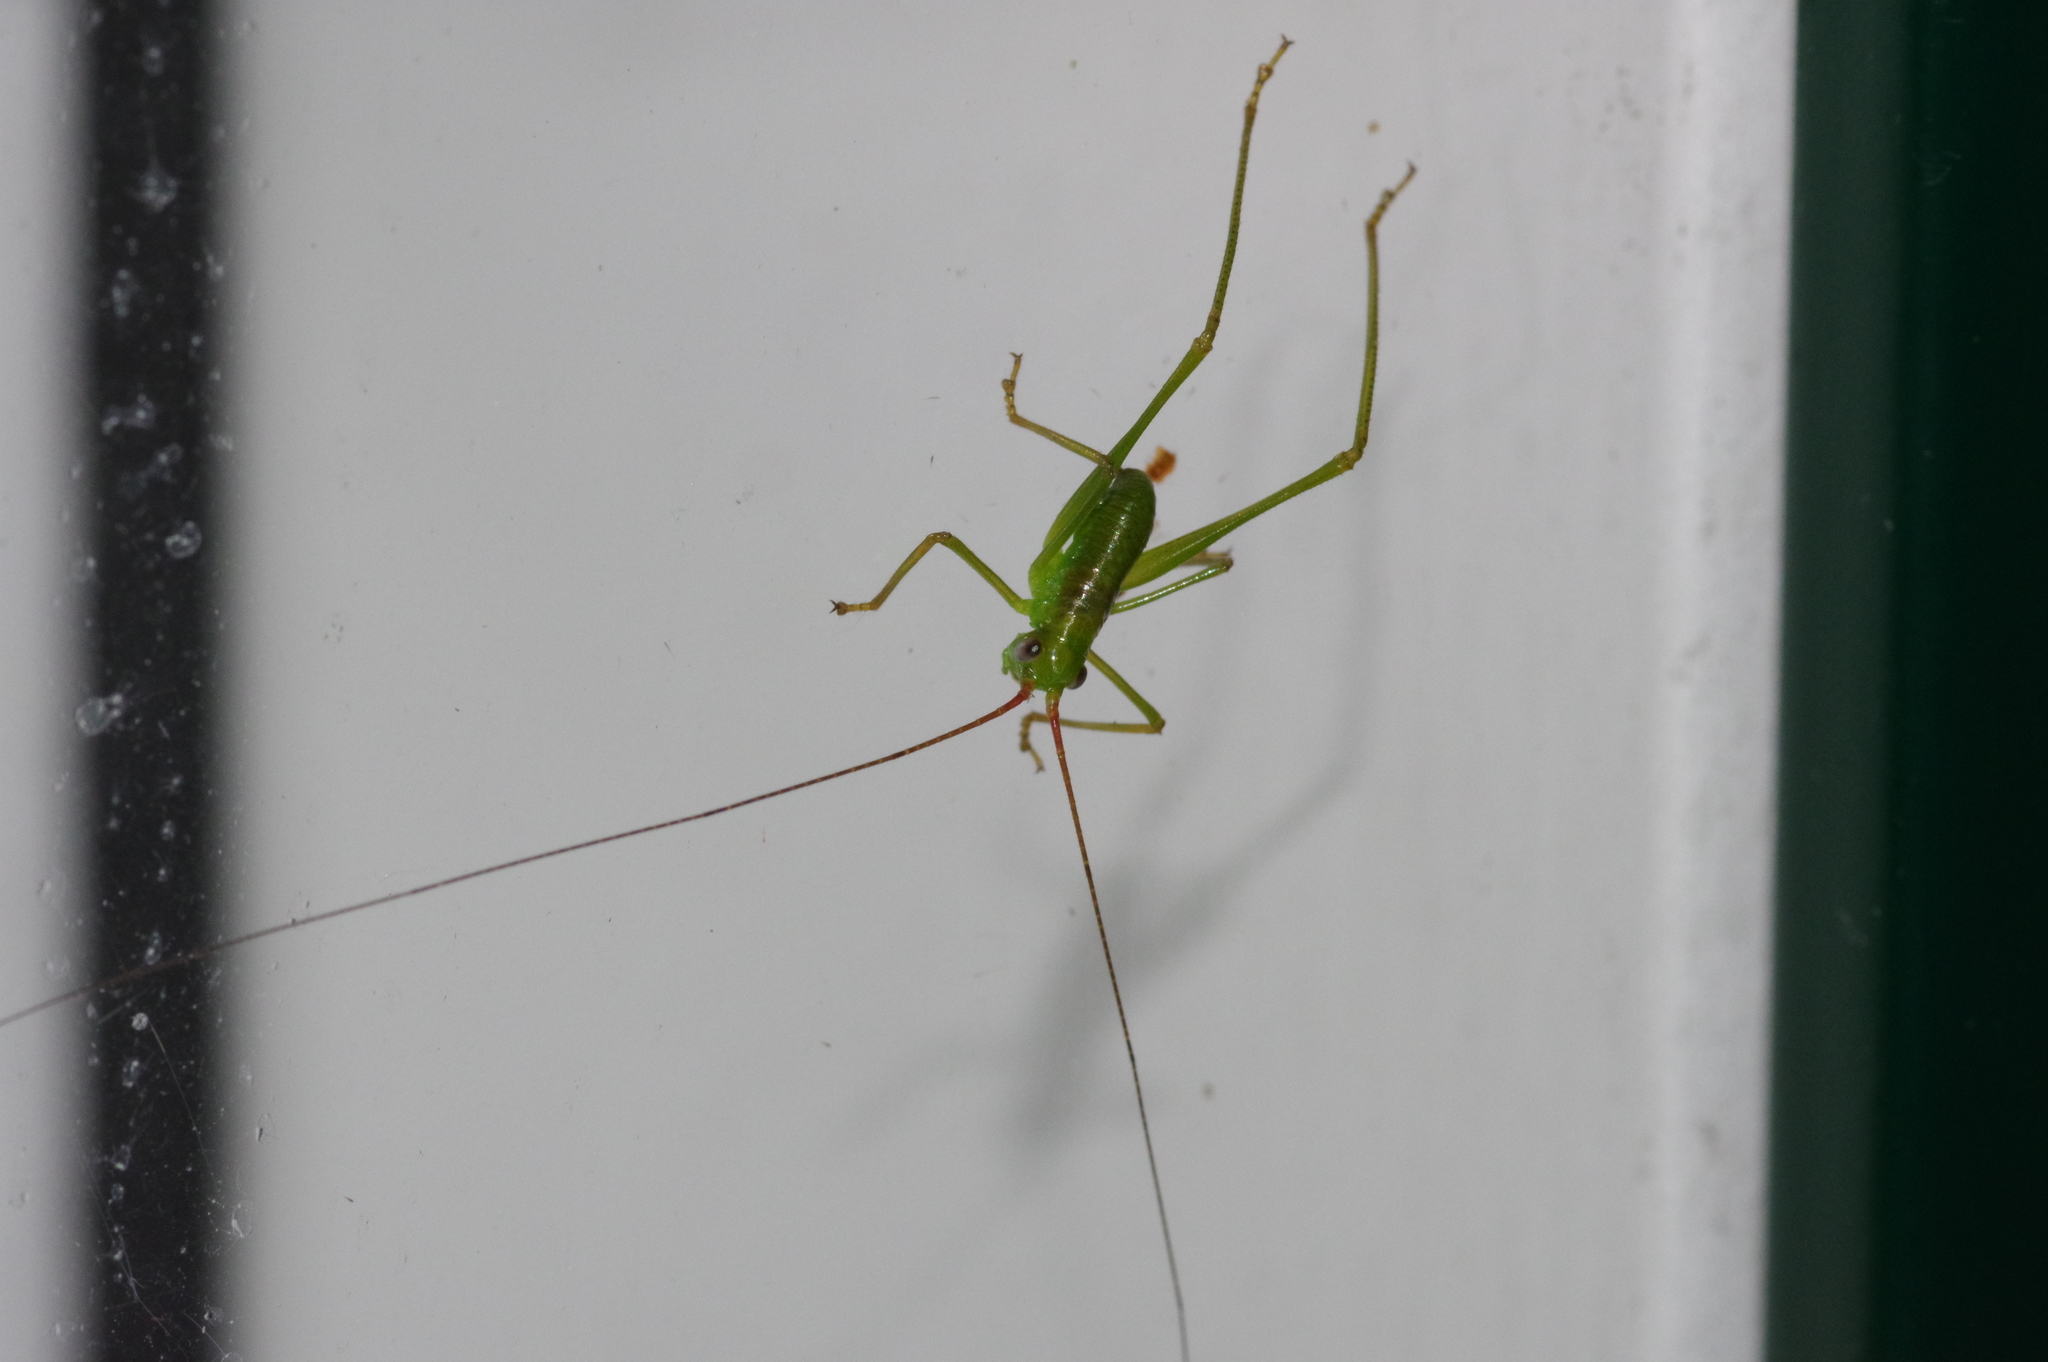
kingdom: Animalia
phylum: Arthropoda
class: Insecta
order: Orthoptera
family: Tettigoniidae
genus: Psyrana
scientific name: Psyrana ryukyuensis
